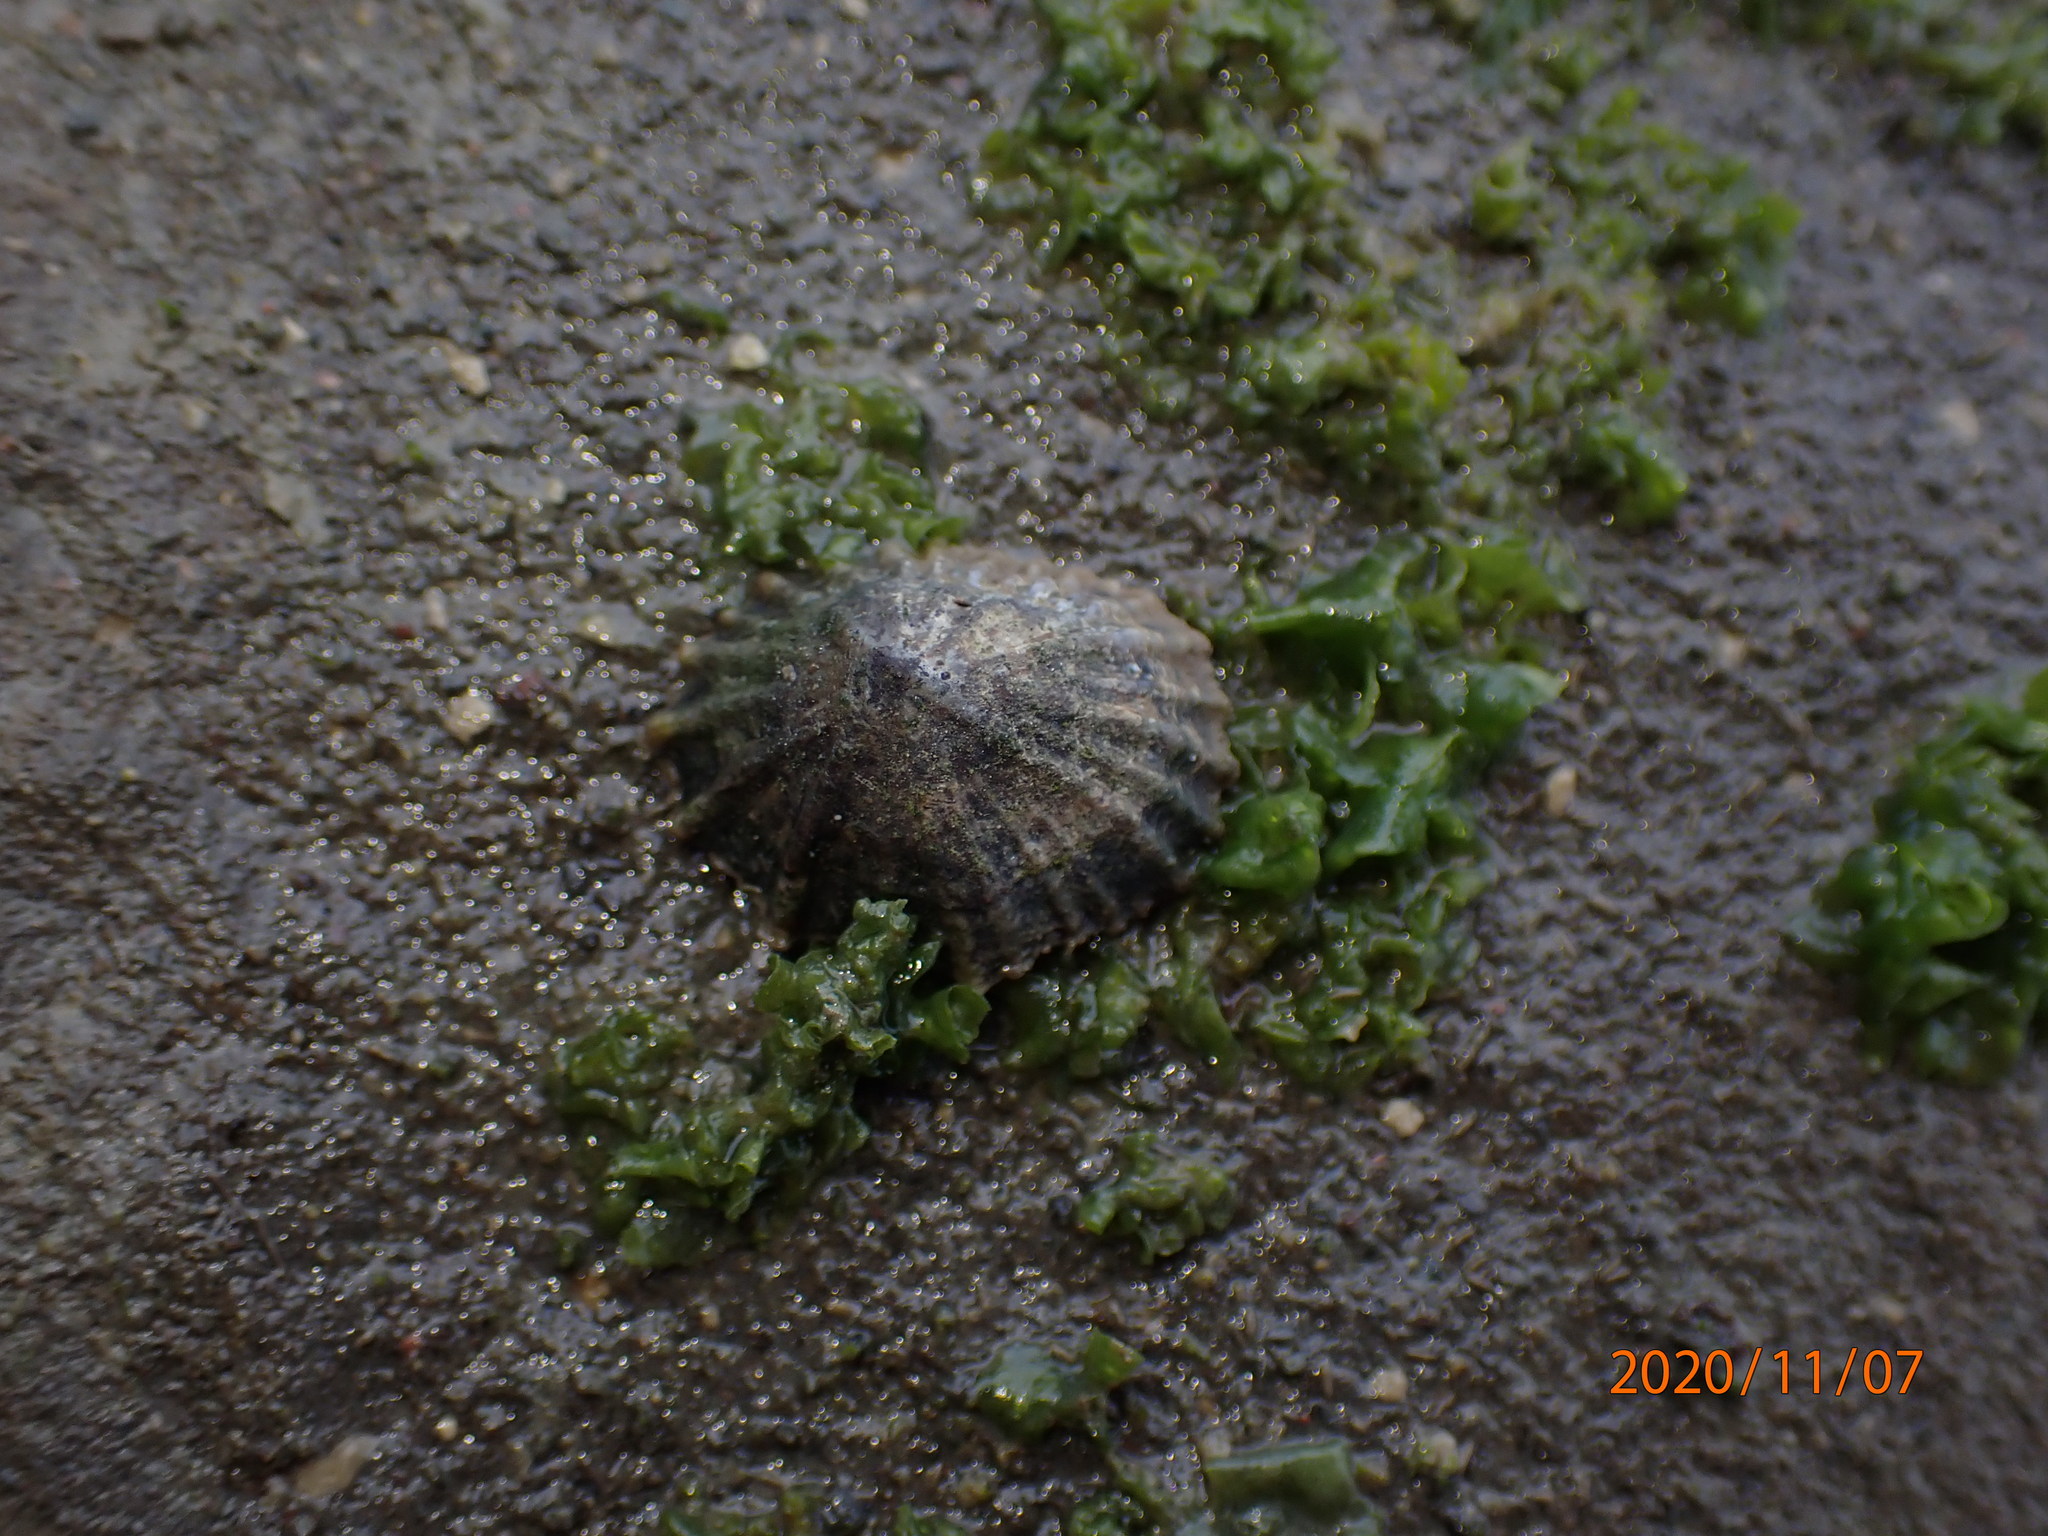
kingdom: Animalia
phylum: Mollusca
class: Gastropoda
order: Siphonariida
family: Siphonariidae
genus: Siphonaria
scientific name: Siphonaria australis
